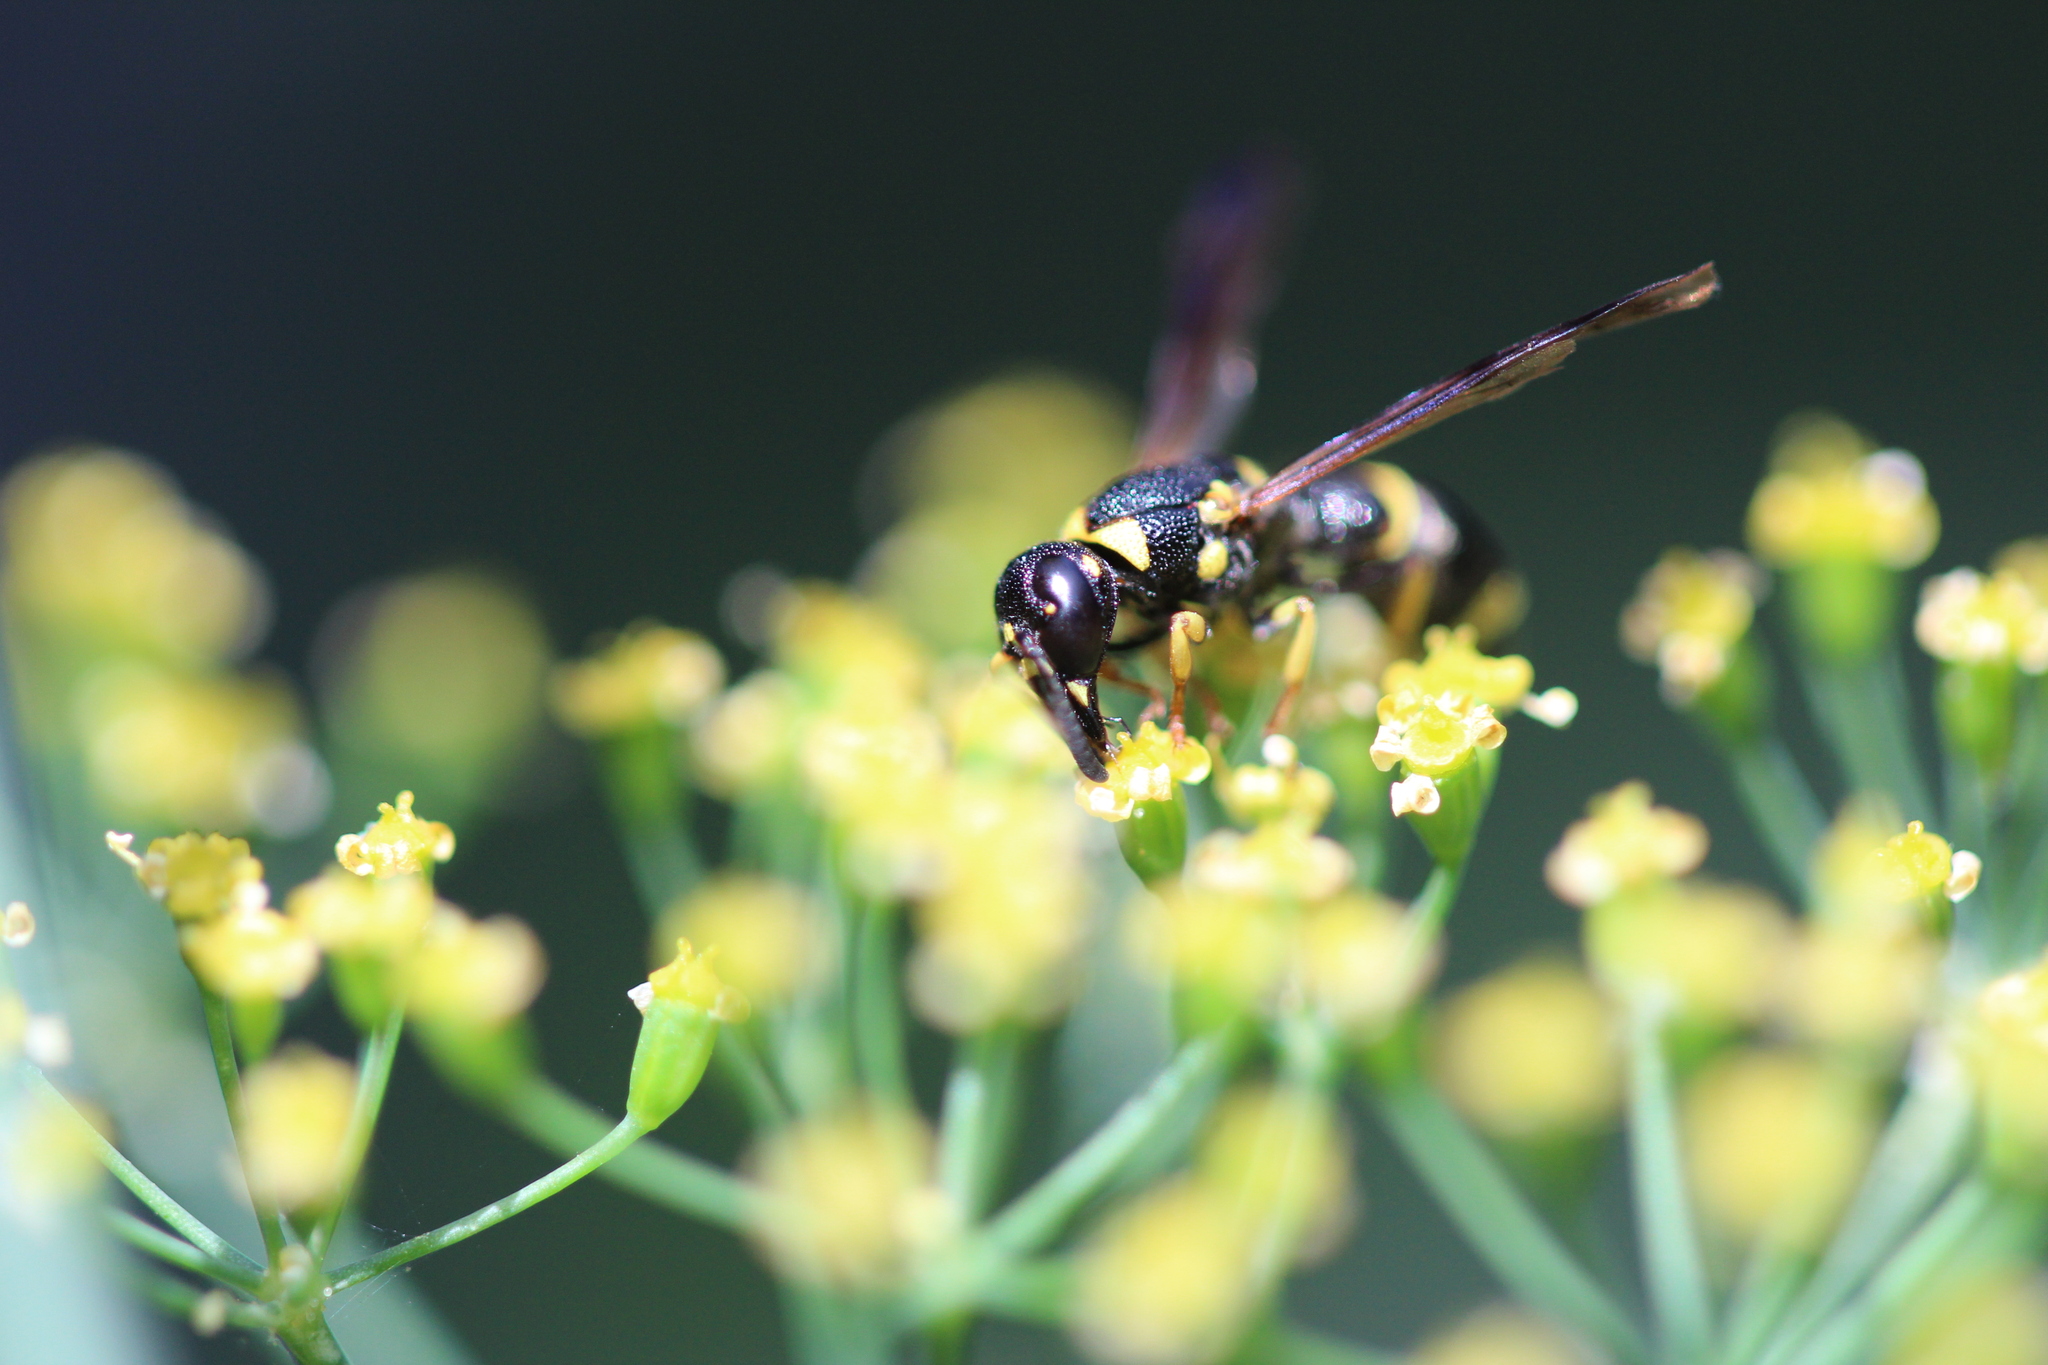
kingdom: Animalia
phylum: Arthropoda
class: Insecta
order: Hymenoptera
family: Eumenidae
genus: Parancistrocerus
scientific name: Parancistrocerus perennis
